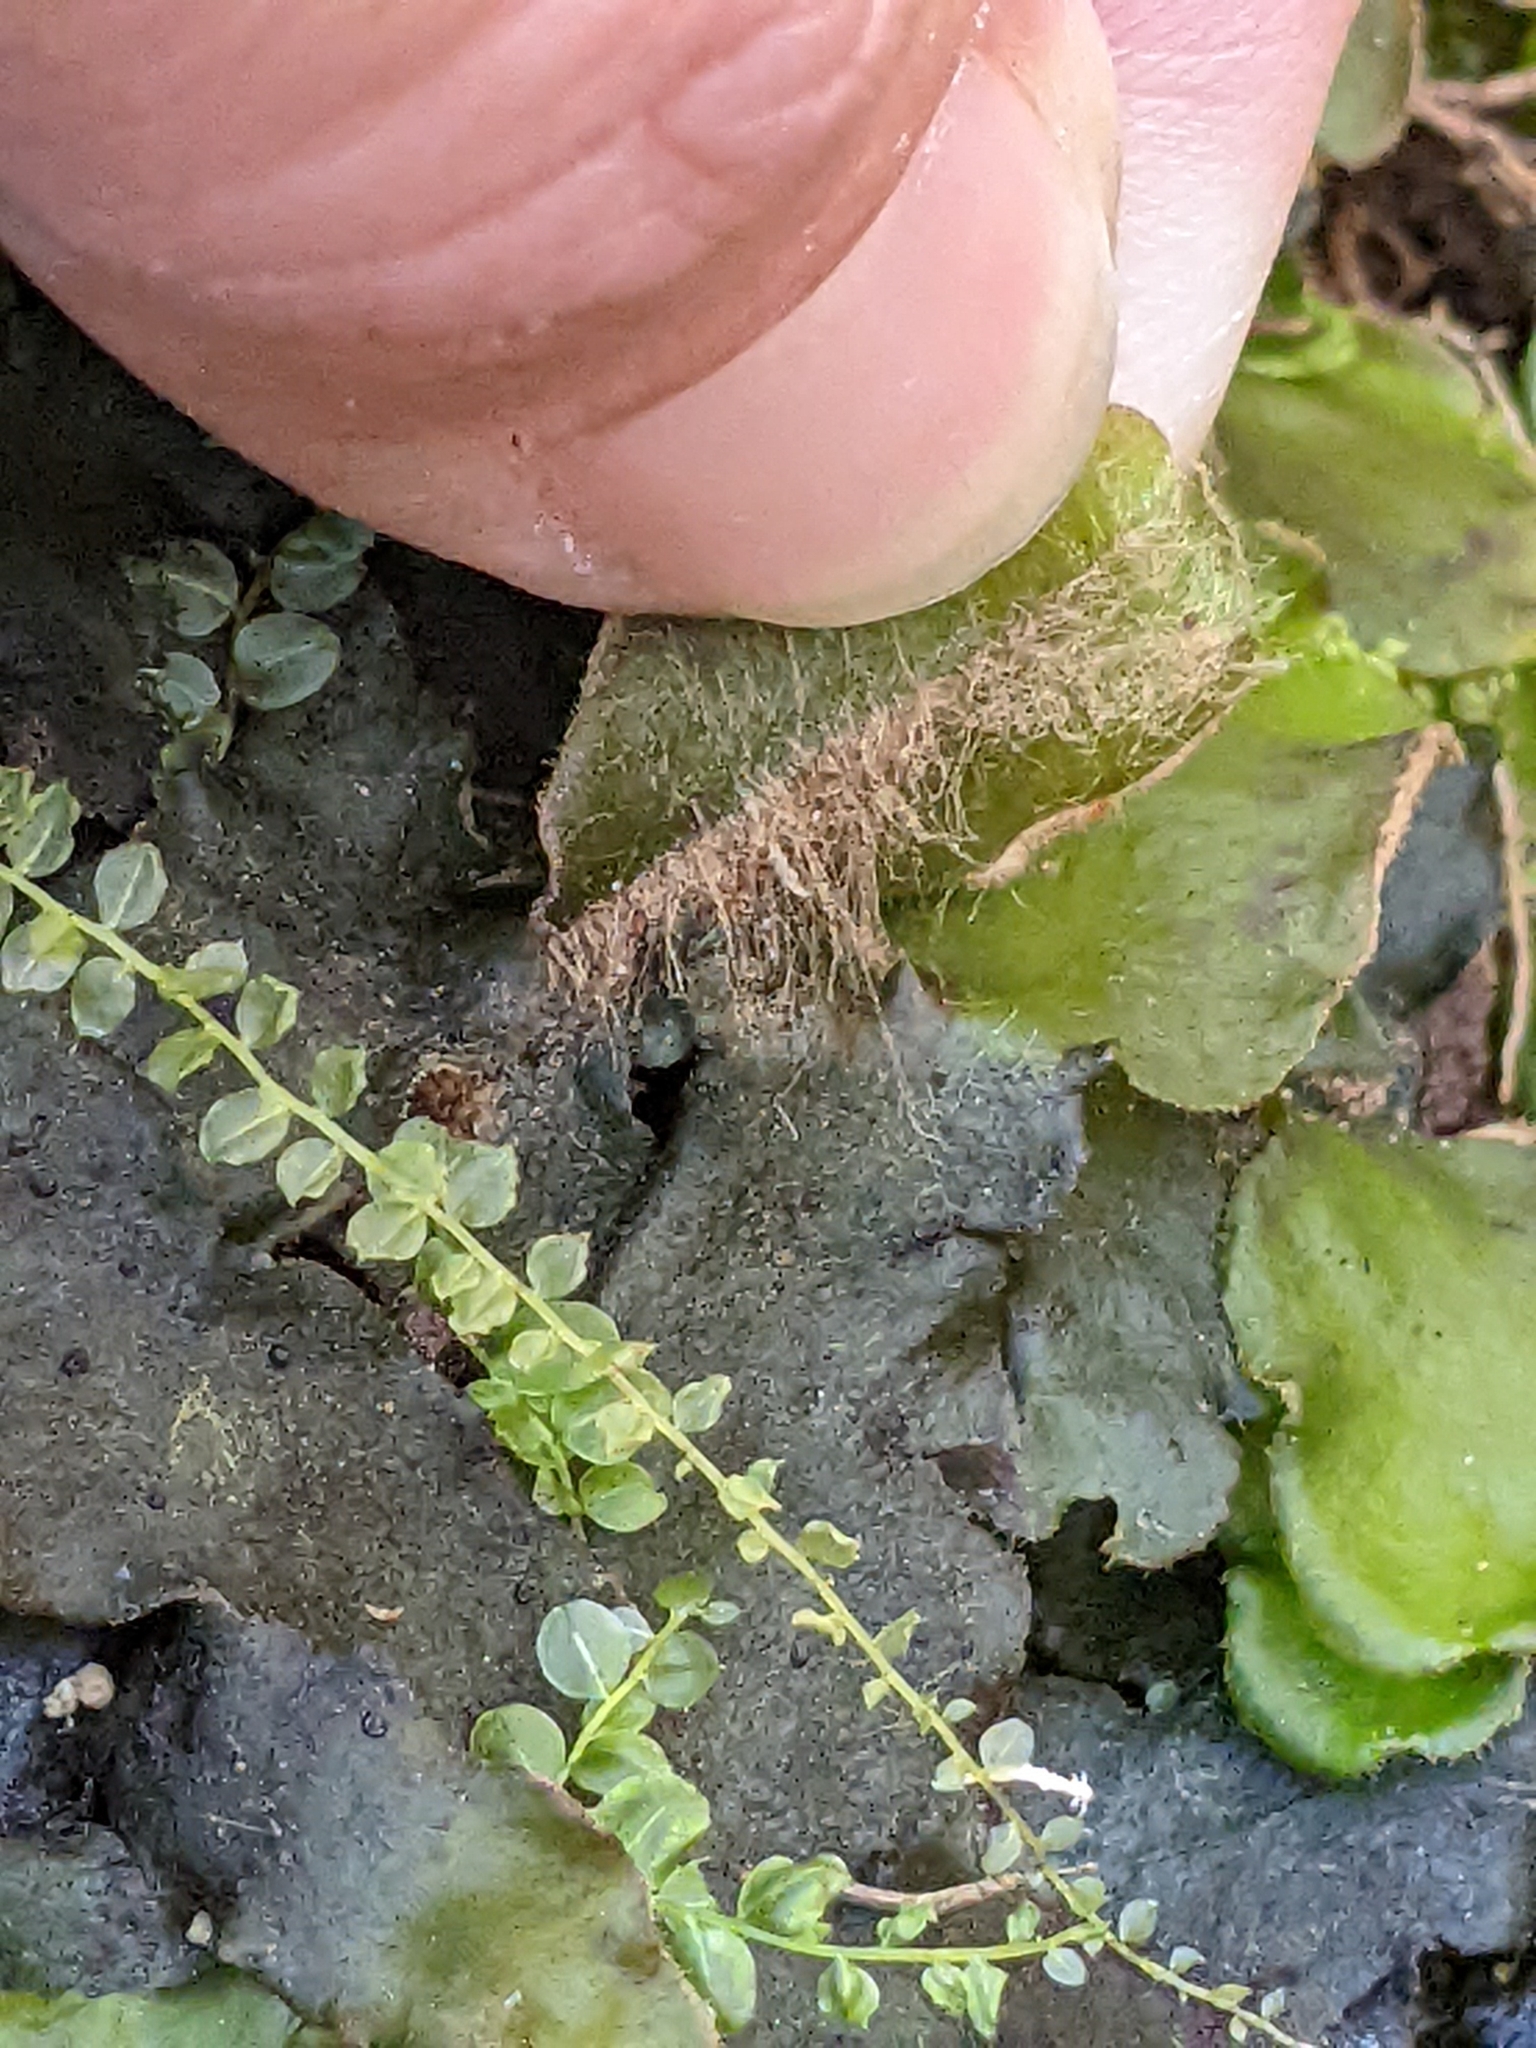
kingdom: Plantae
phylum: Marchantiophyta
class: Marchantiopsida
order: Marchantiales
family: Dumortieraceae
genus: Dumortiera
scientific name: Dumortiera hirsuta
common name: Dumortier's liverwort
